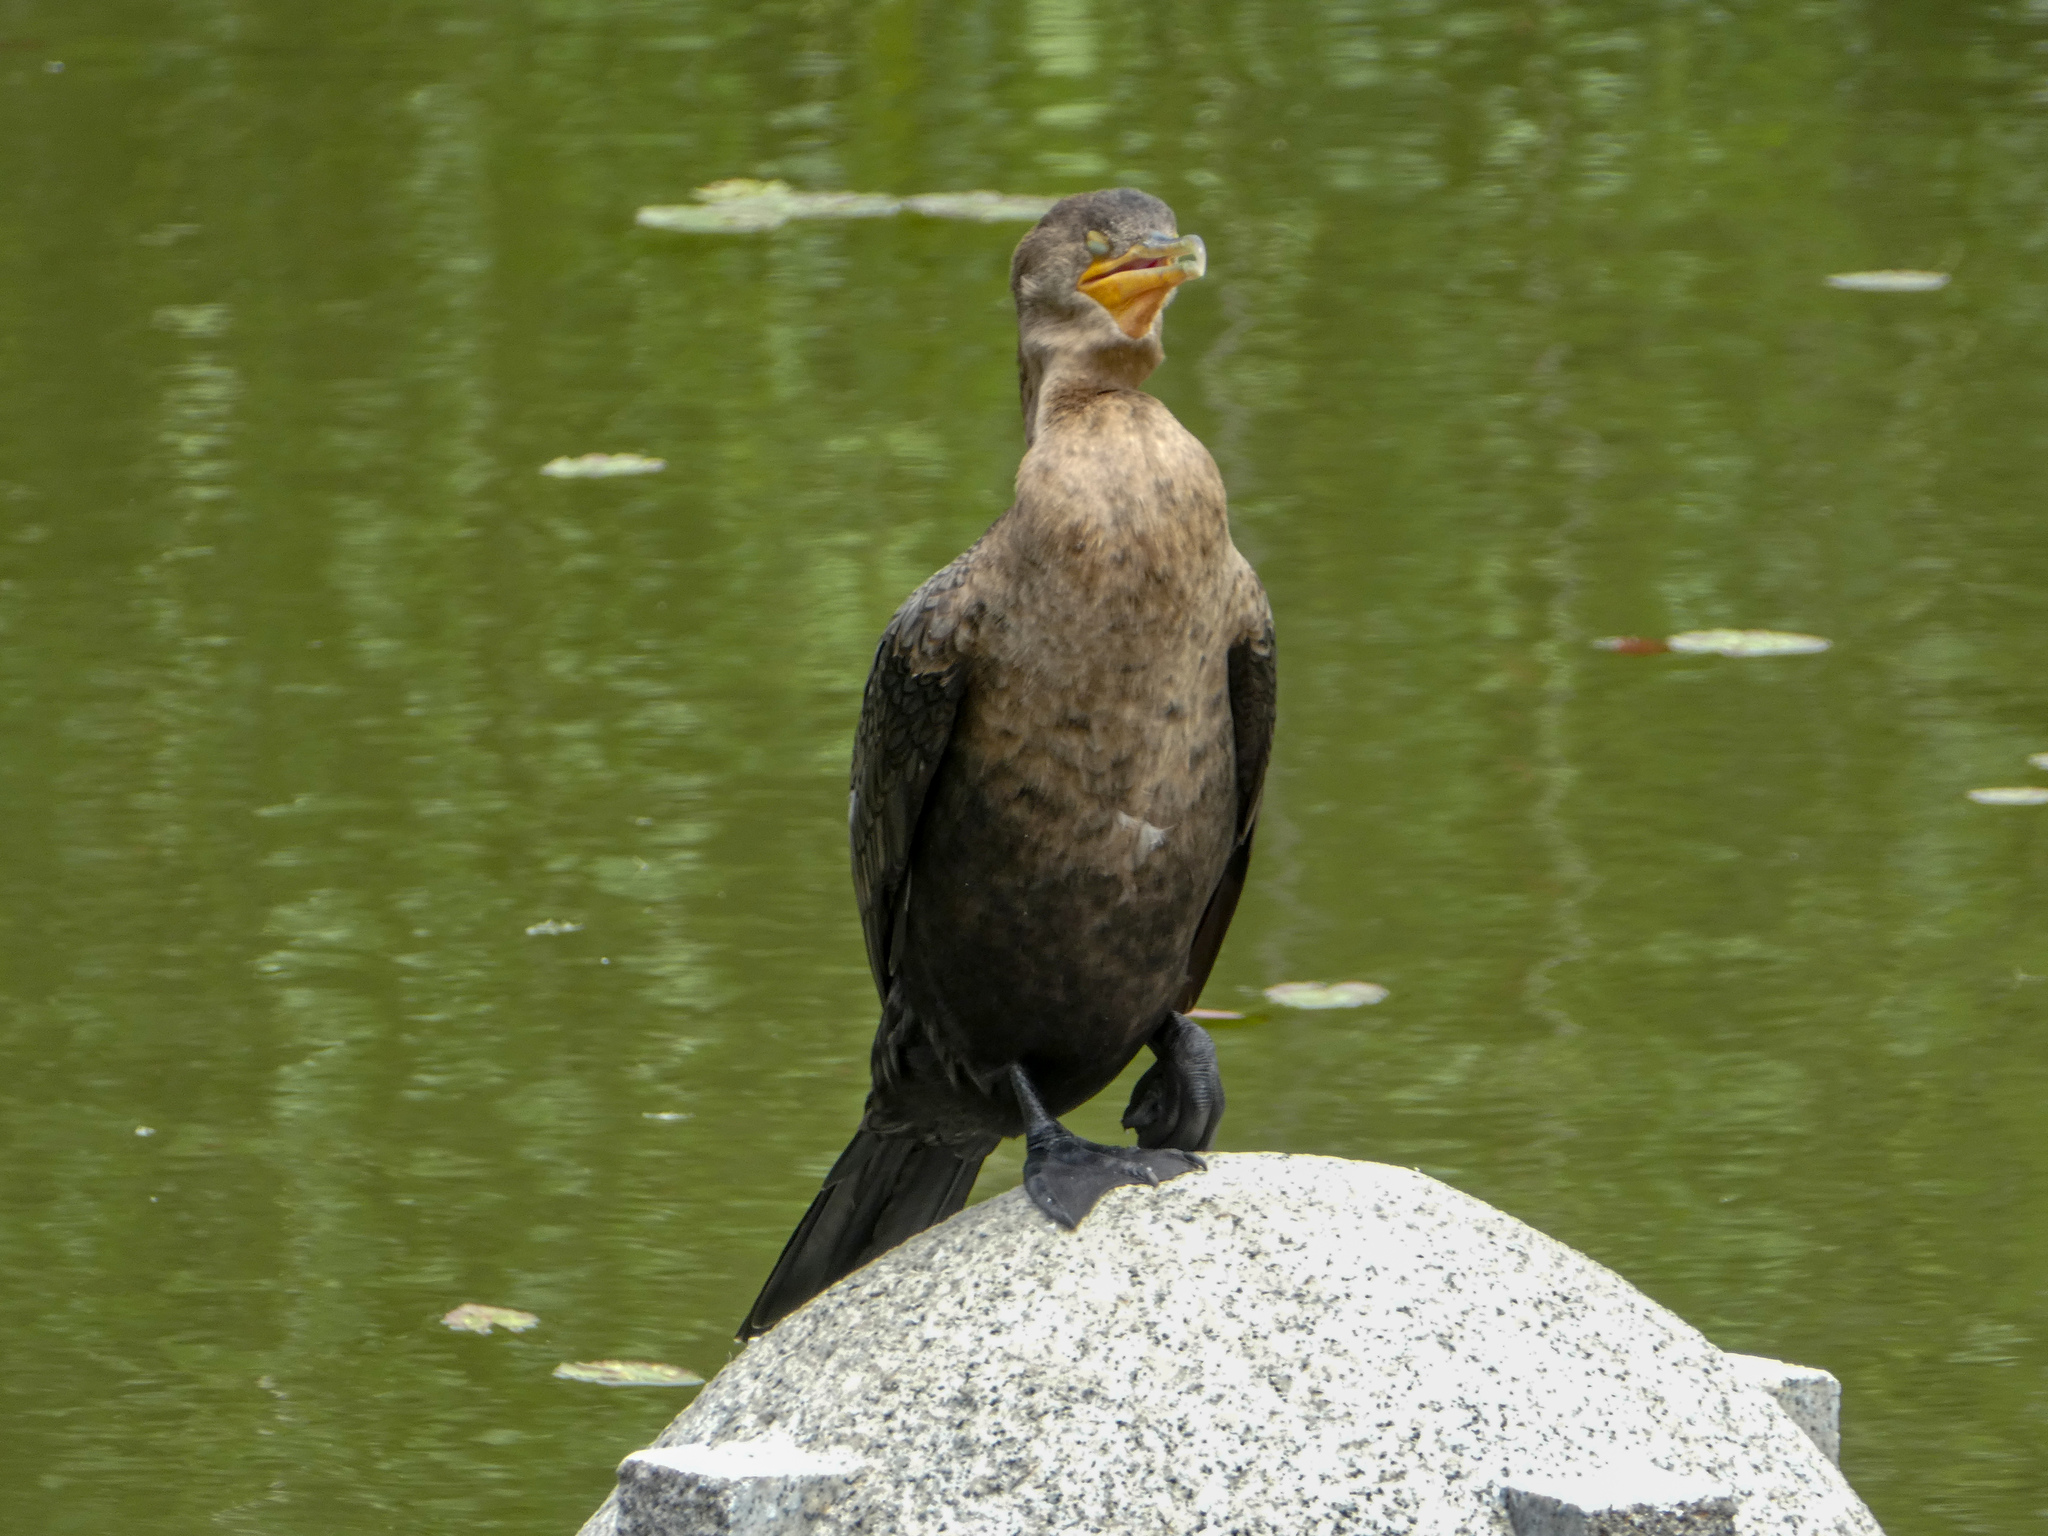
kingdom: Animalia
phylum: Chordata
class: Aves
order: Suliformes
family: Phalacrocoracidae
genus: Phalacrocorax
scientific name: Phalacrocorax brasilianus
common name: Neotropic cormorant
